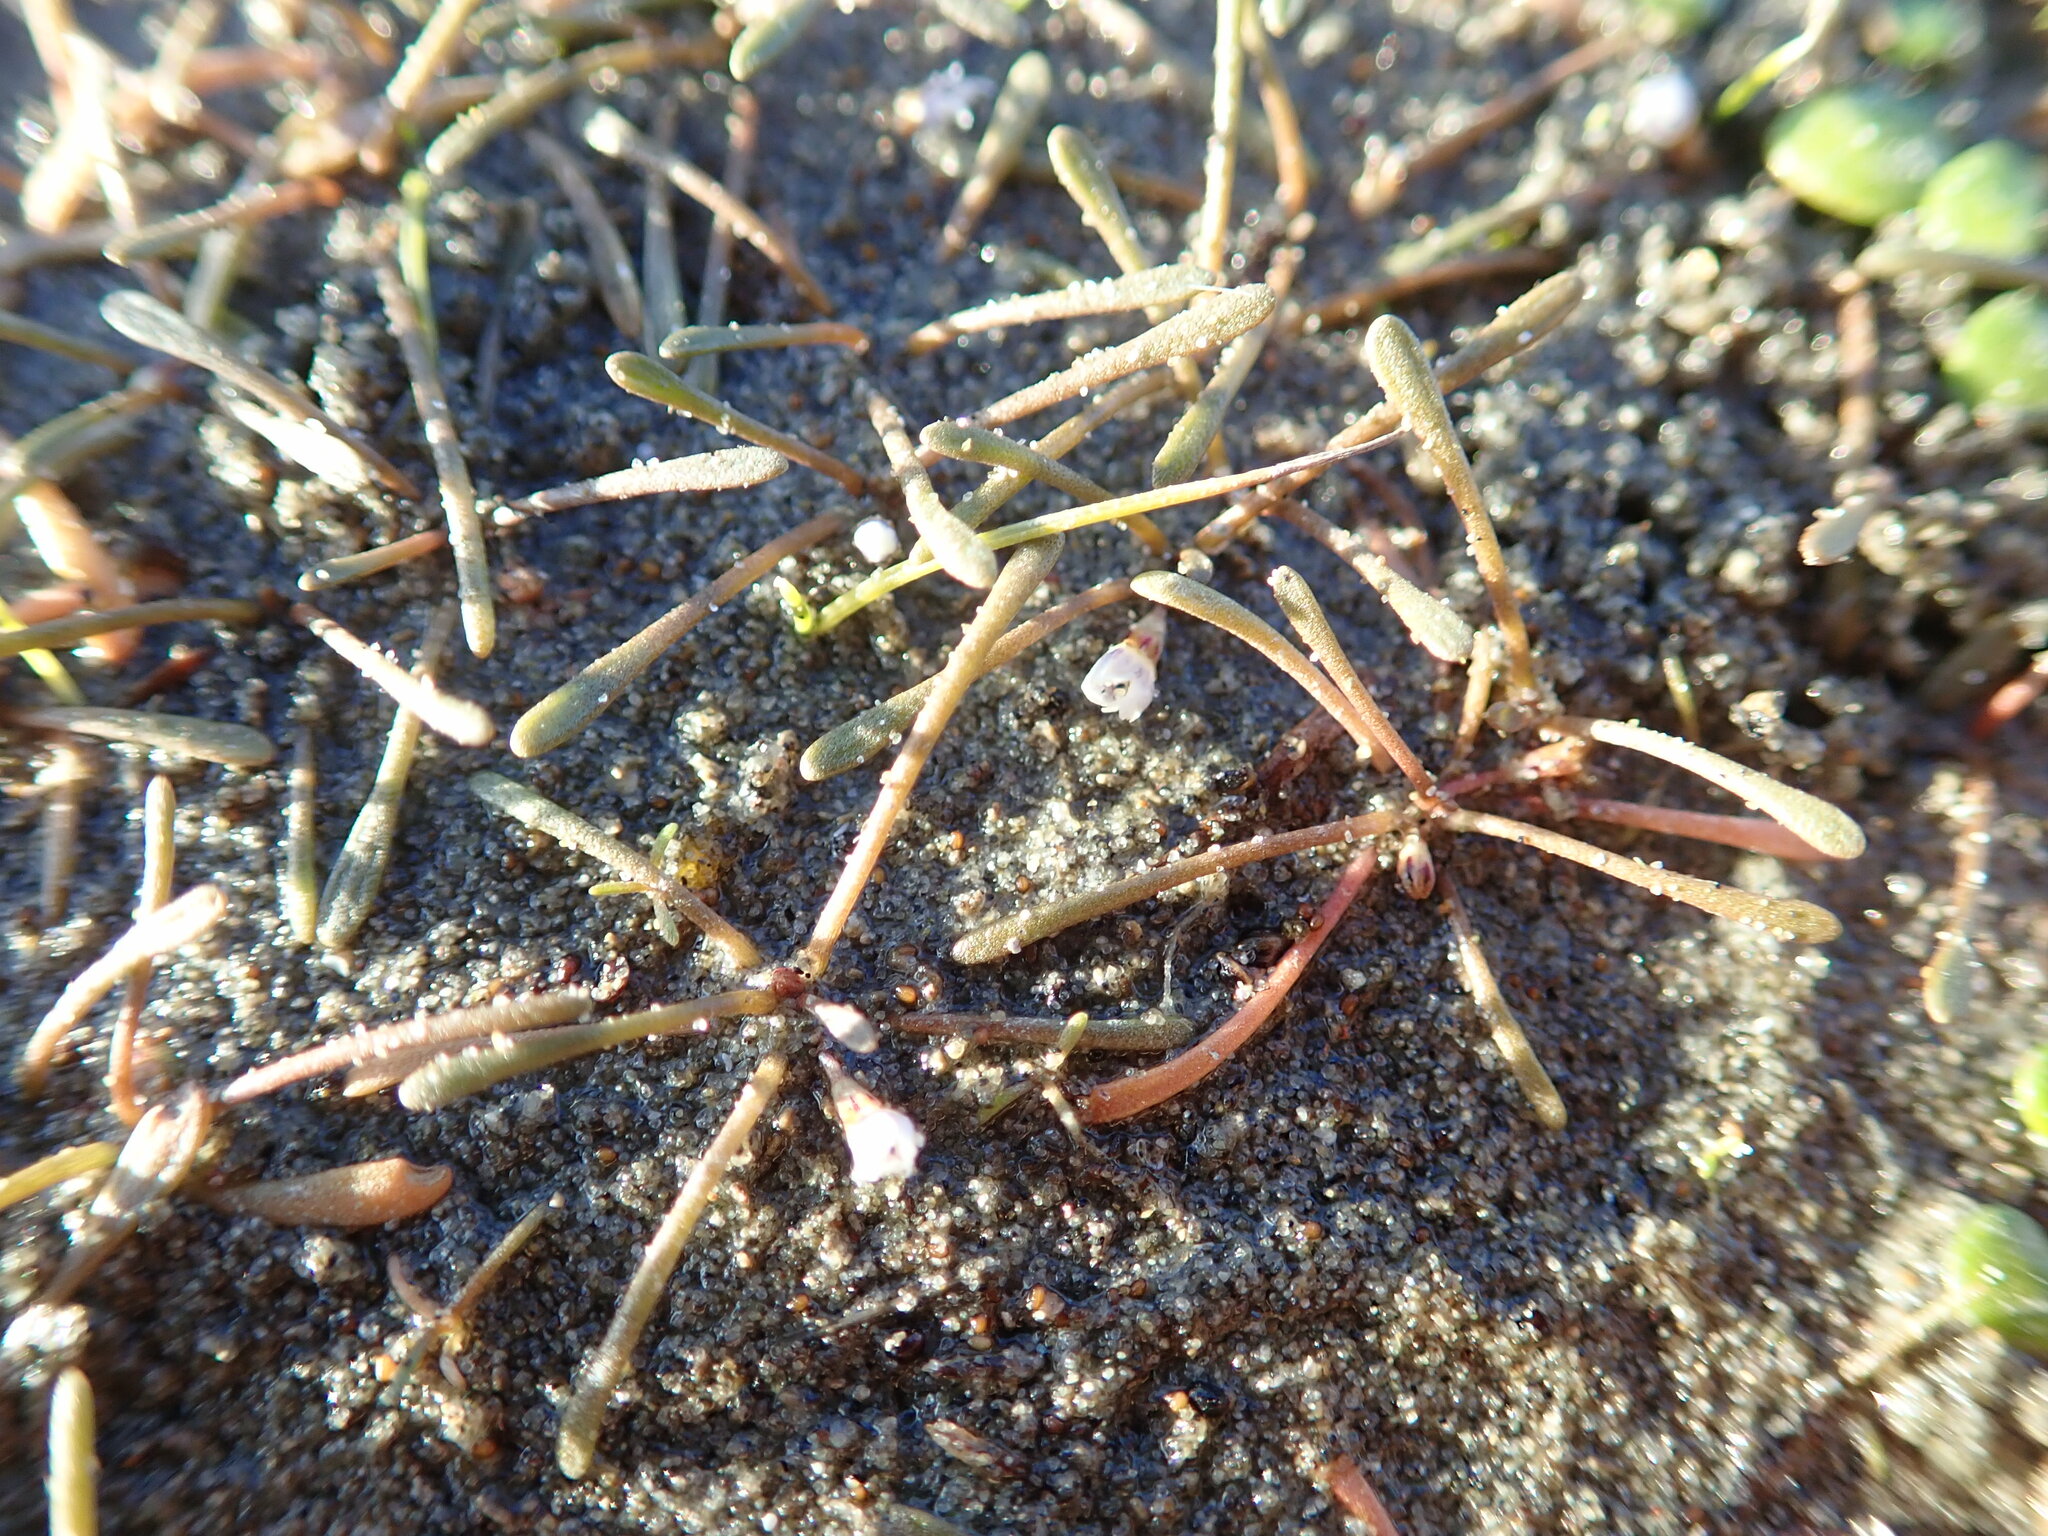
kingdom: Plantae
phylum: Tracheophyta
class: Magnoliopsida
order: Lamiales
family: Scrophulariaceae
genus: Limosella
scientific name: Limosella australis
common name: Welsh mudwort
